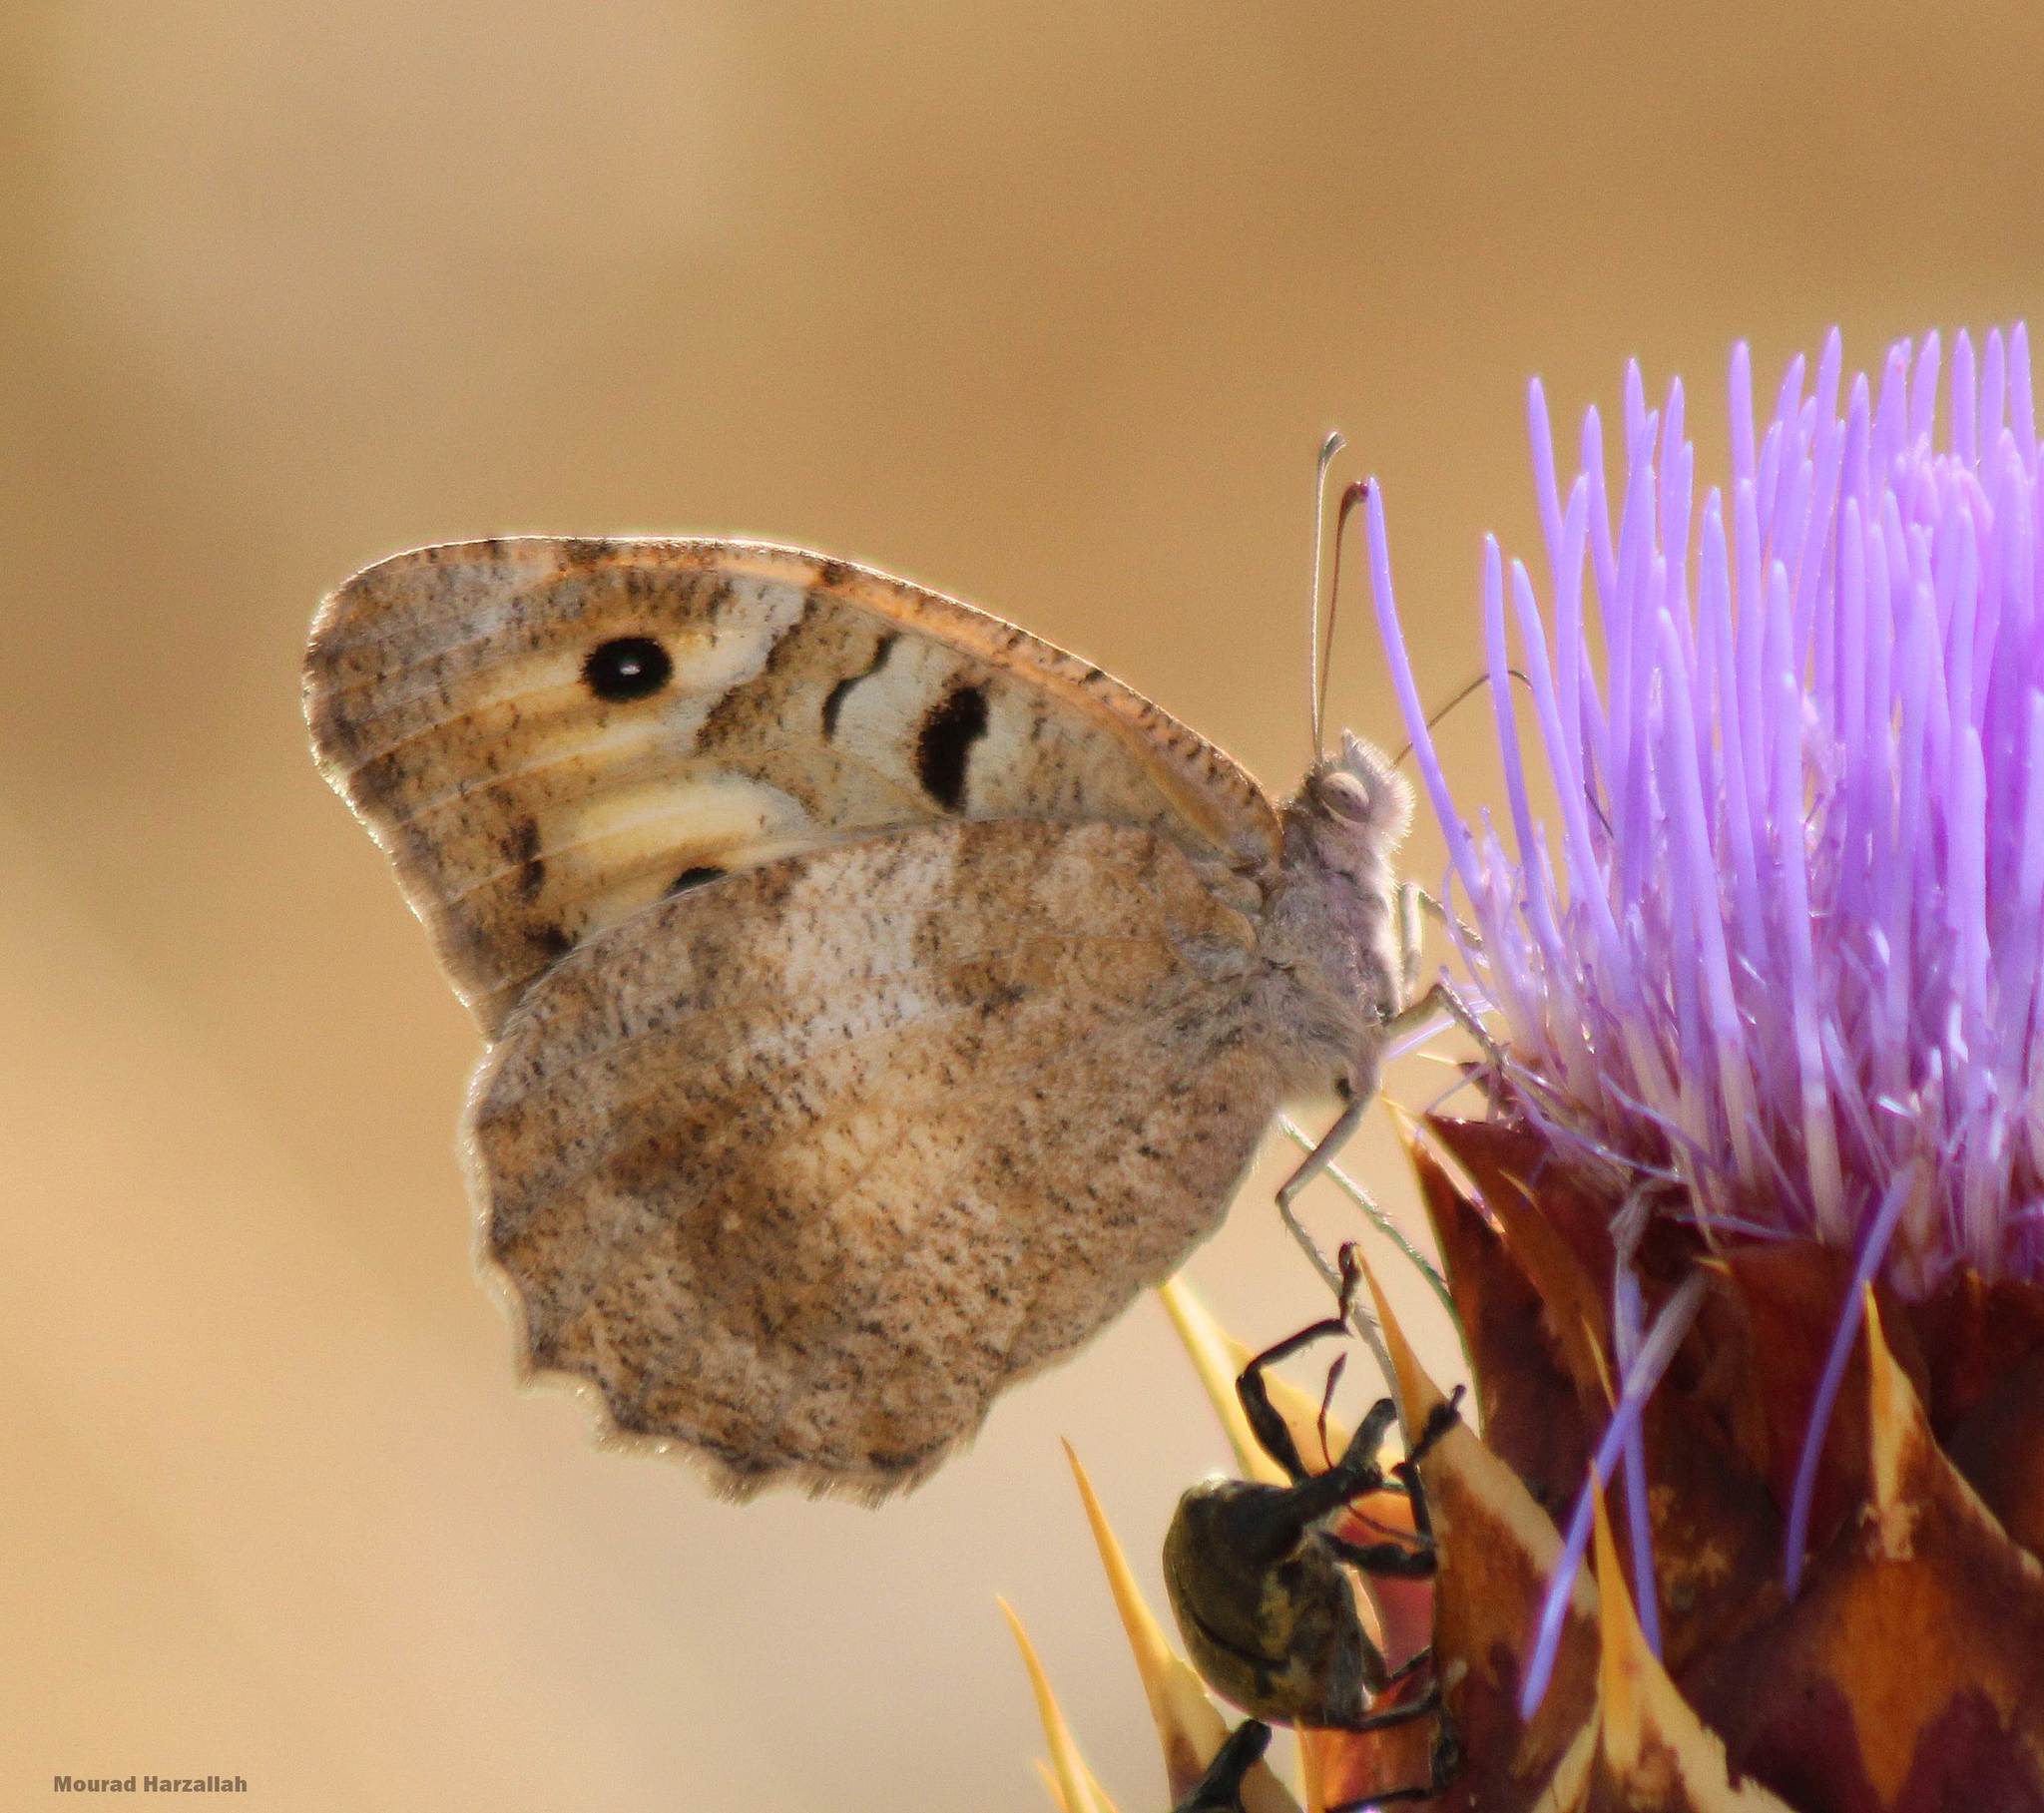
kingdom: Animalia
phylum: Arthropoda
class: Insecta
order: Lepidoptera
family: Nymphalidae
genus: Satyrus
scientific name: Satyrus briseis
